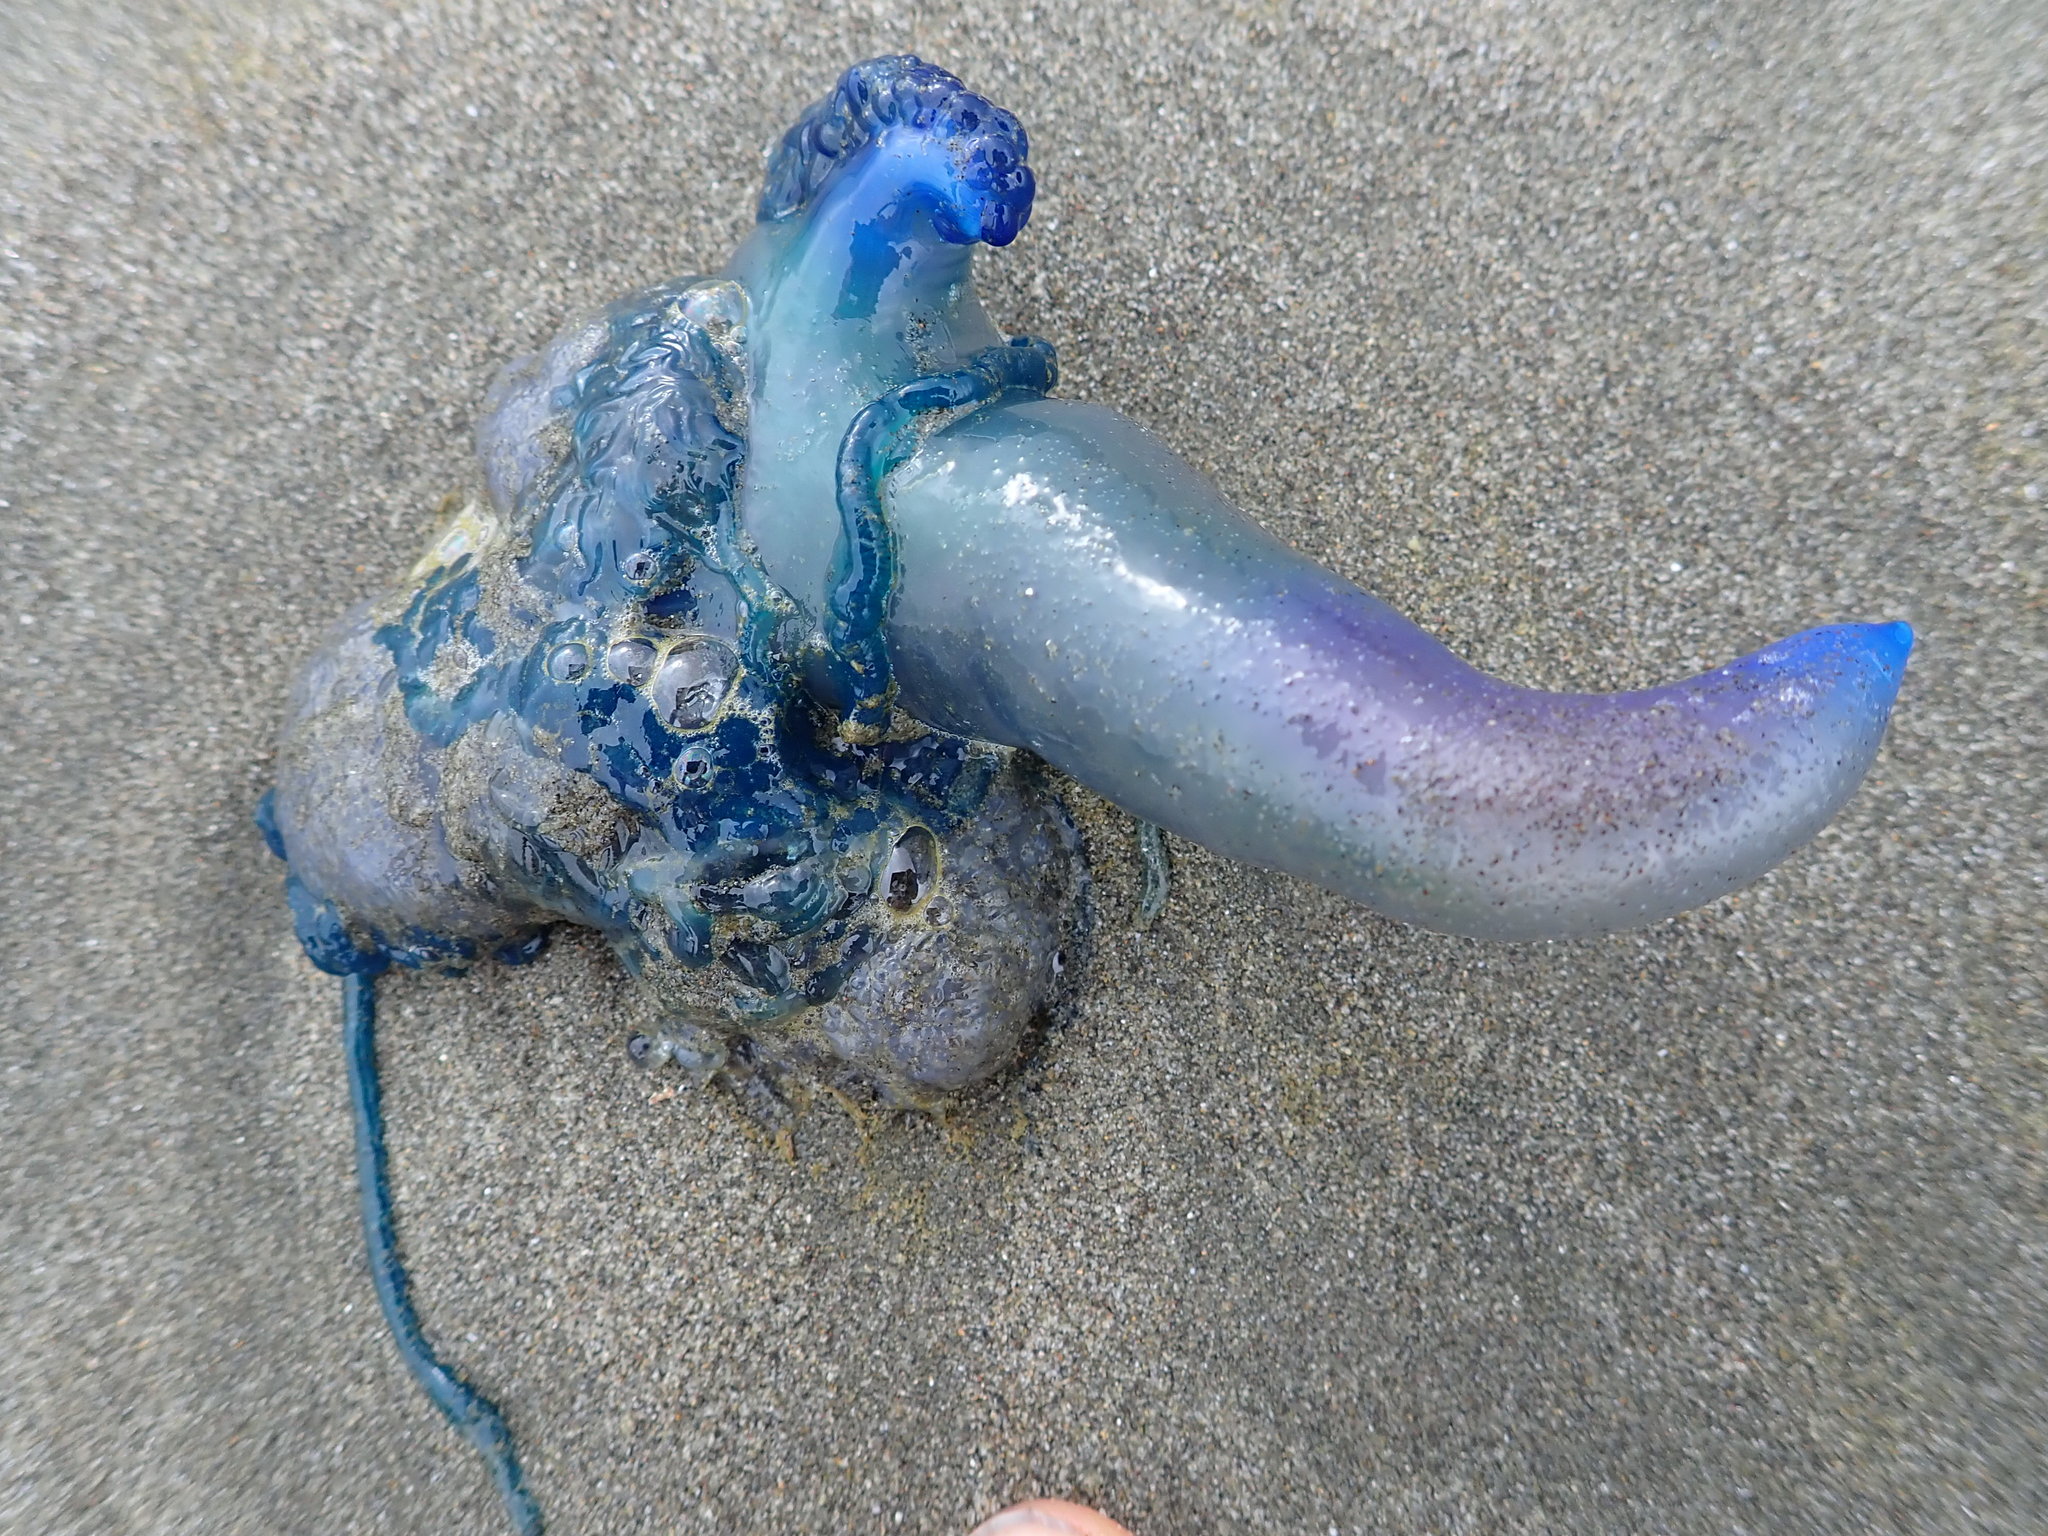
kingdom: Animalia
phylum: Cnidaria
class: Hydrozoa
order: Siphonophorae
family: Physaliidae
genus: Physalia
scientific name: Physalia physalis
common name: Portuguese man-of-war
